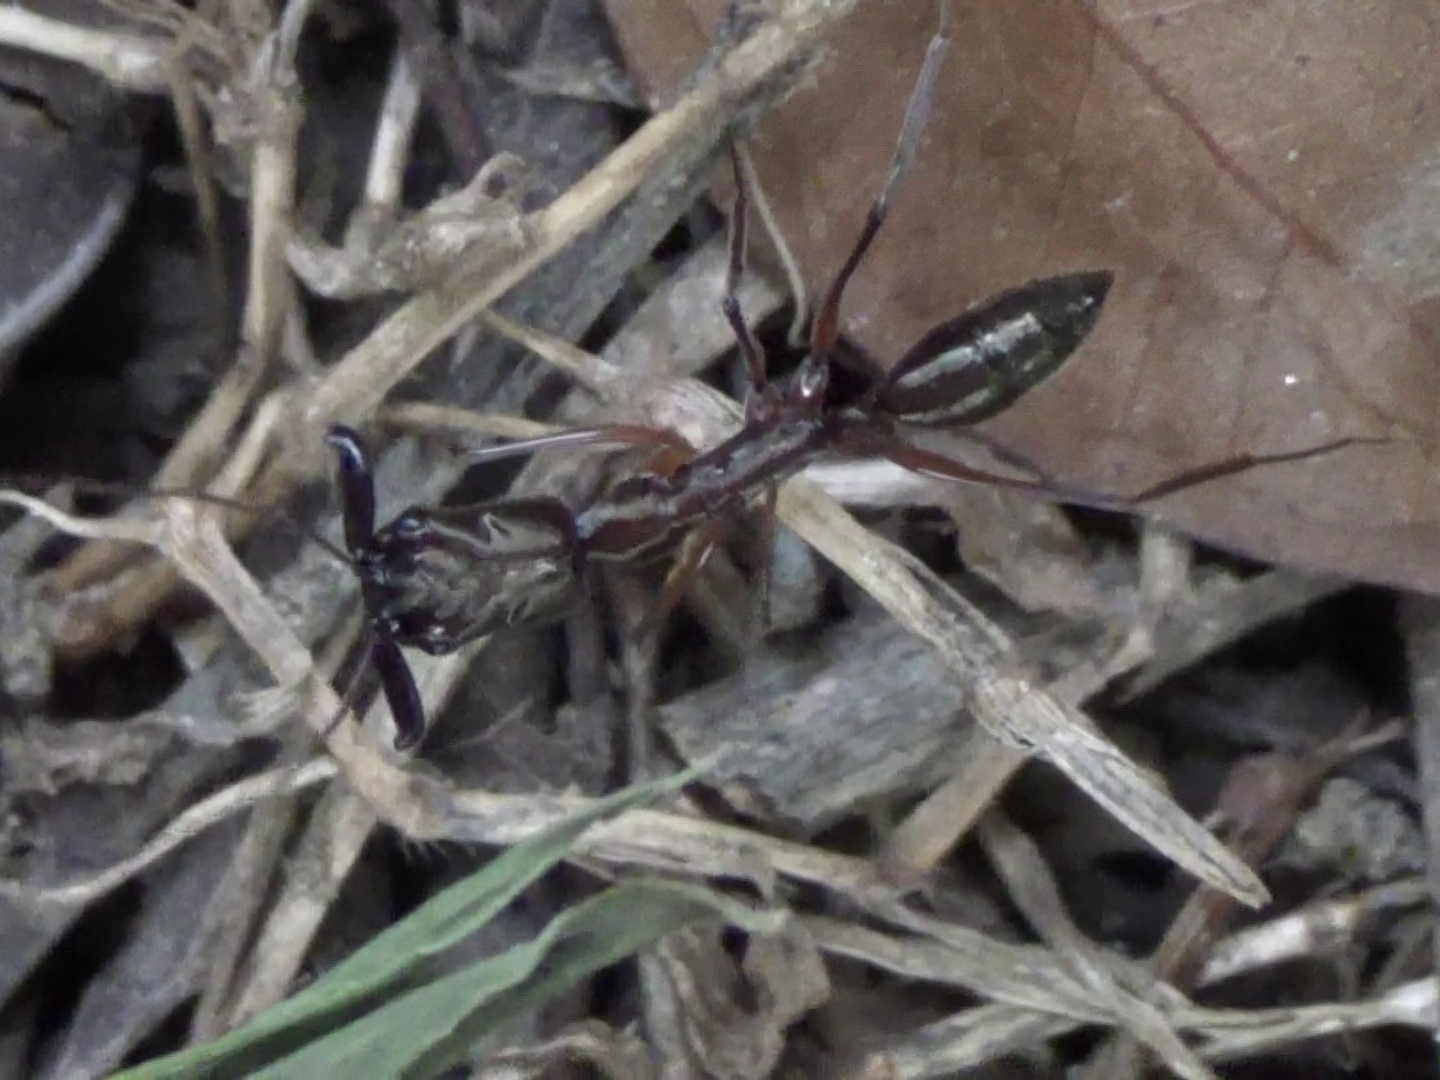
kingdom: Animalia
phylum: Arthropoda
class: Insecta
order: Hymenoptera
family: Formicidae
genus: Odontomachus
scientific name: Odontomachus chelifer
